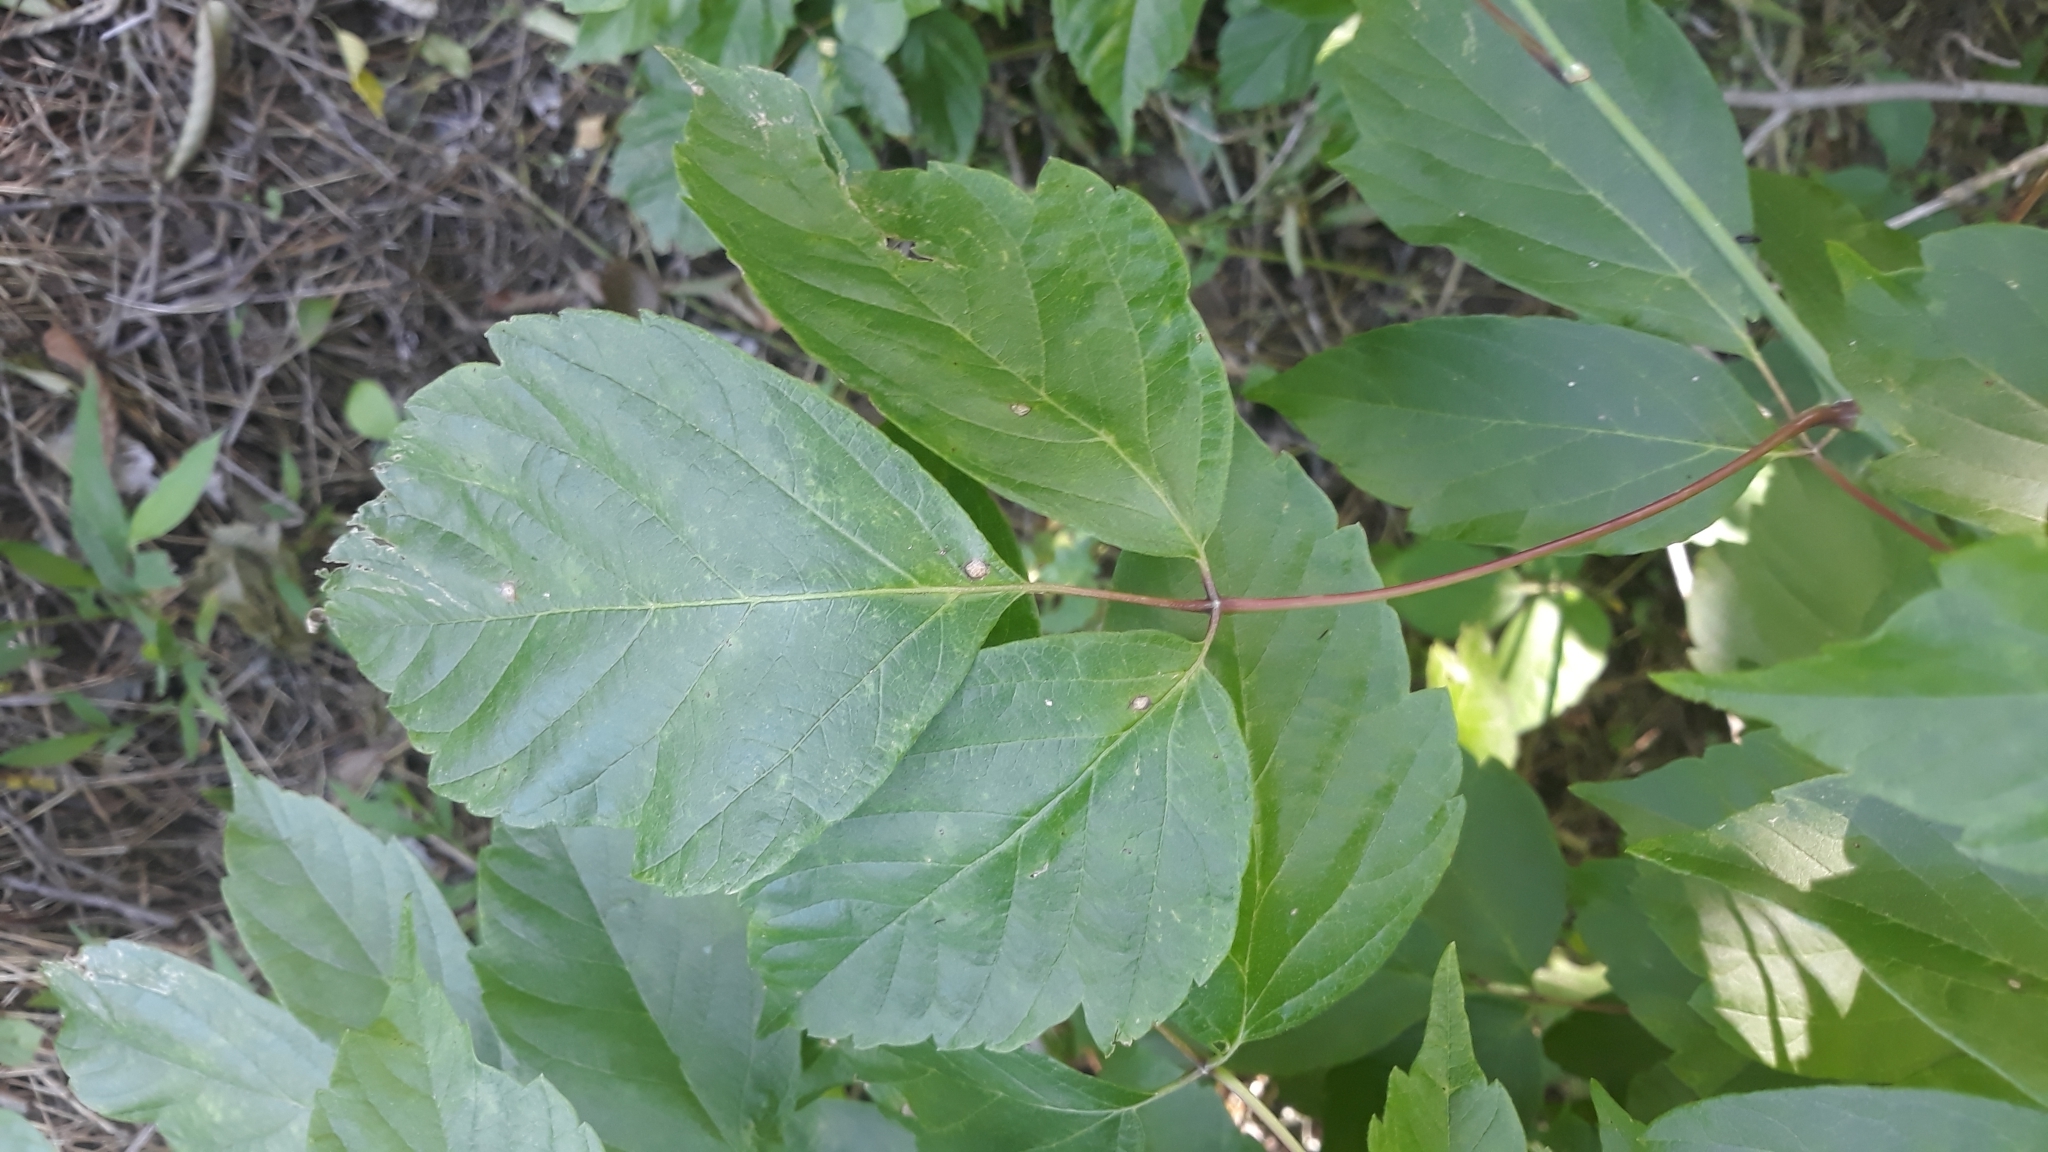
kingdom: Plantae
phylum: Tracheophyta
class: Magnoliopsida
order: Sapindales
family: Anacardiaceae
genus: Toxicodendron
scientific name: Toxicodendron radicans
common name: Poison ivy
